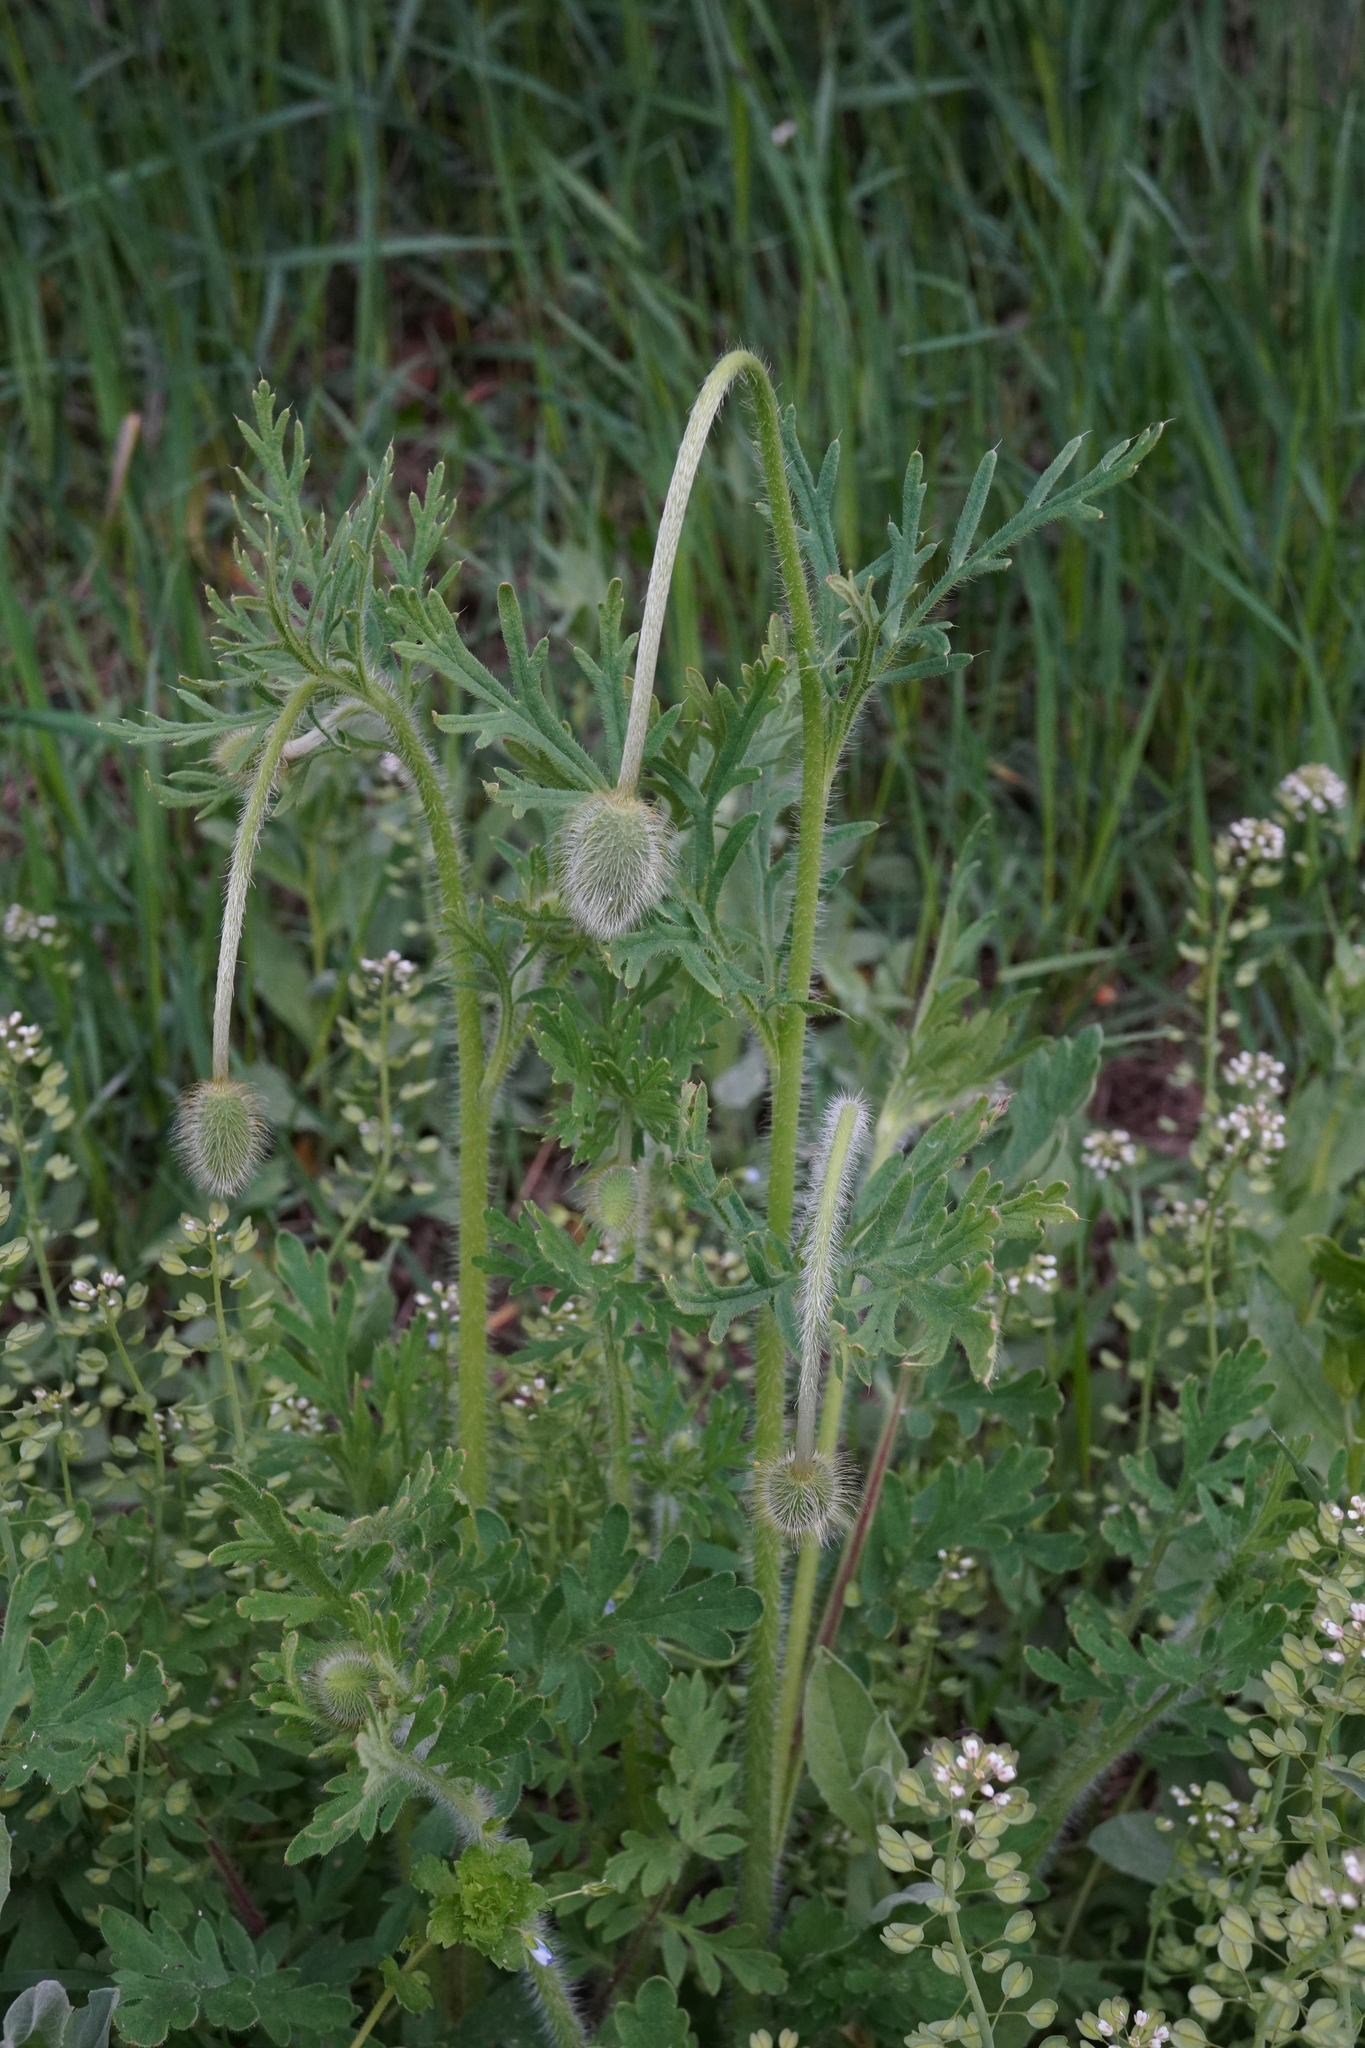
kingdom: Plantae
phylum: Tracheophyta
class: Magnoliopsida
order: Ranunculales
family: Papaveraceae
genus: Papaver
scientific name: Papaver dubium
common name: Long-headed poppy
